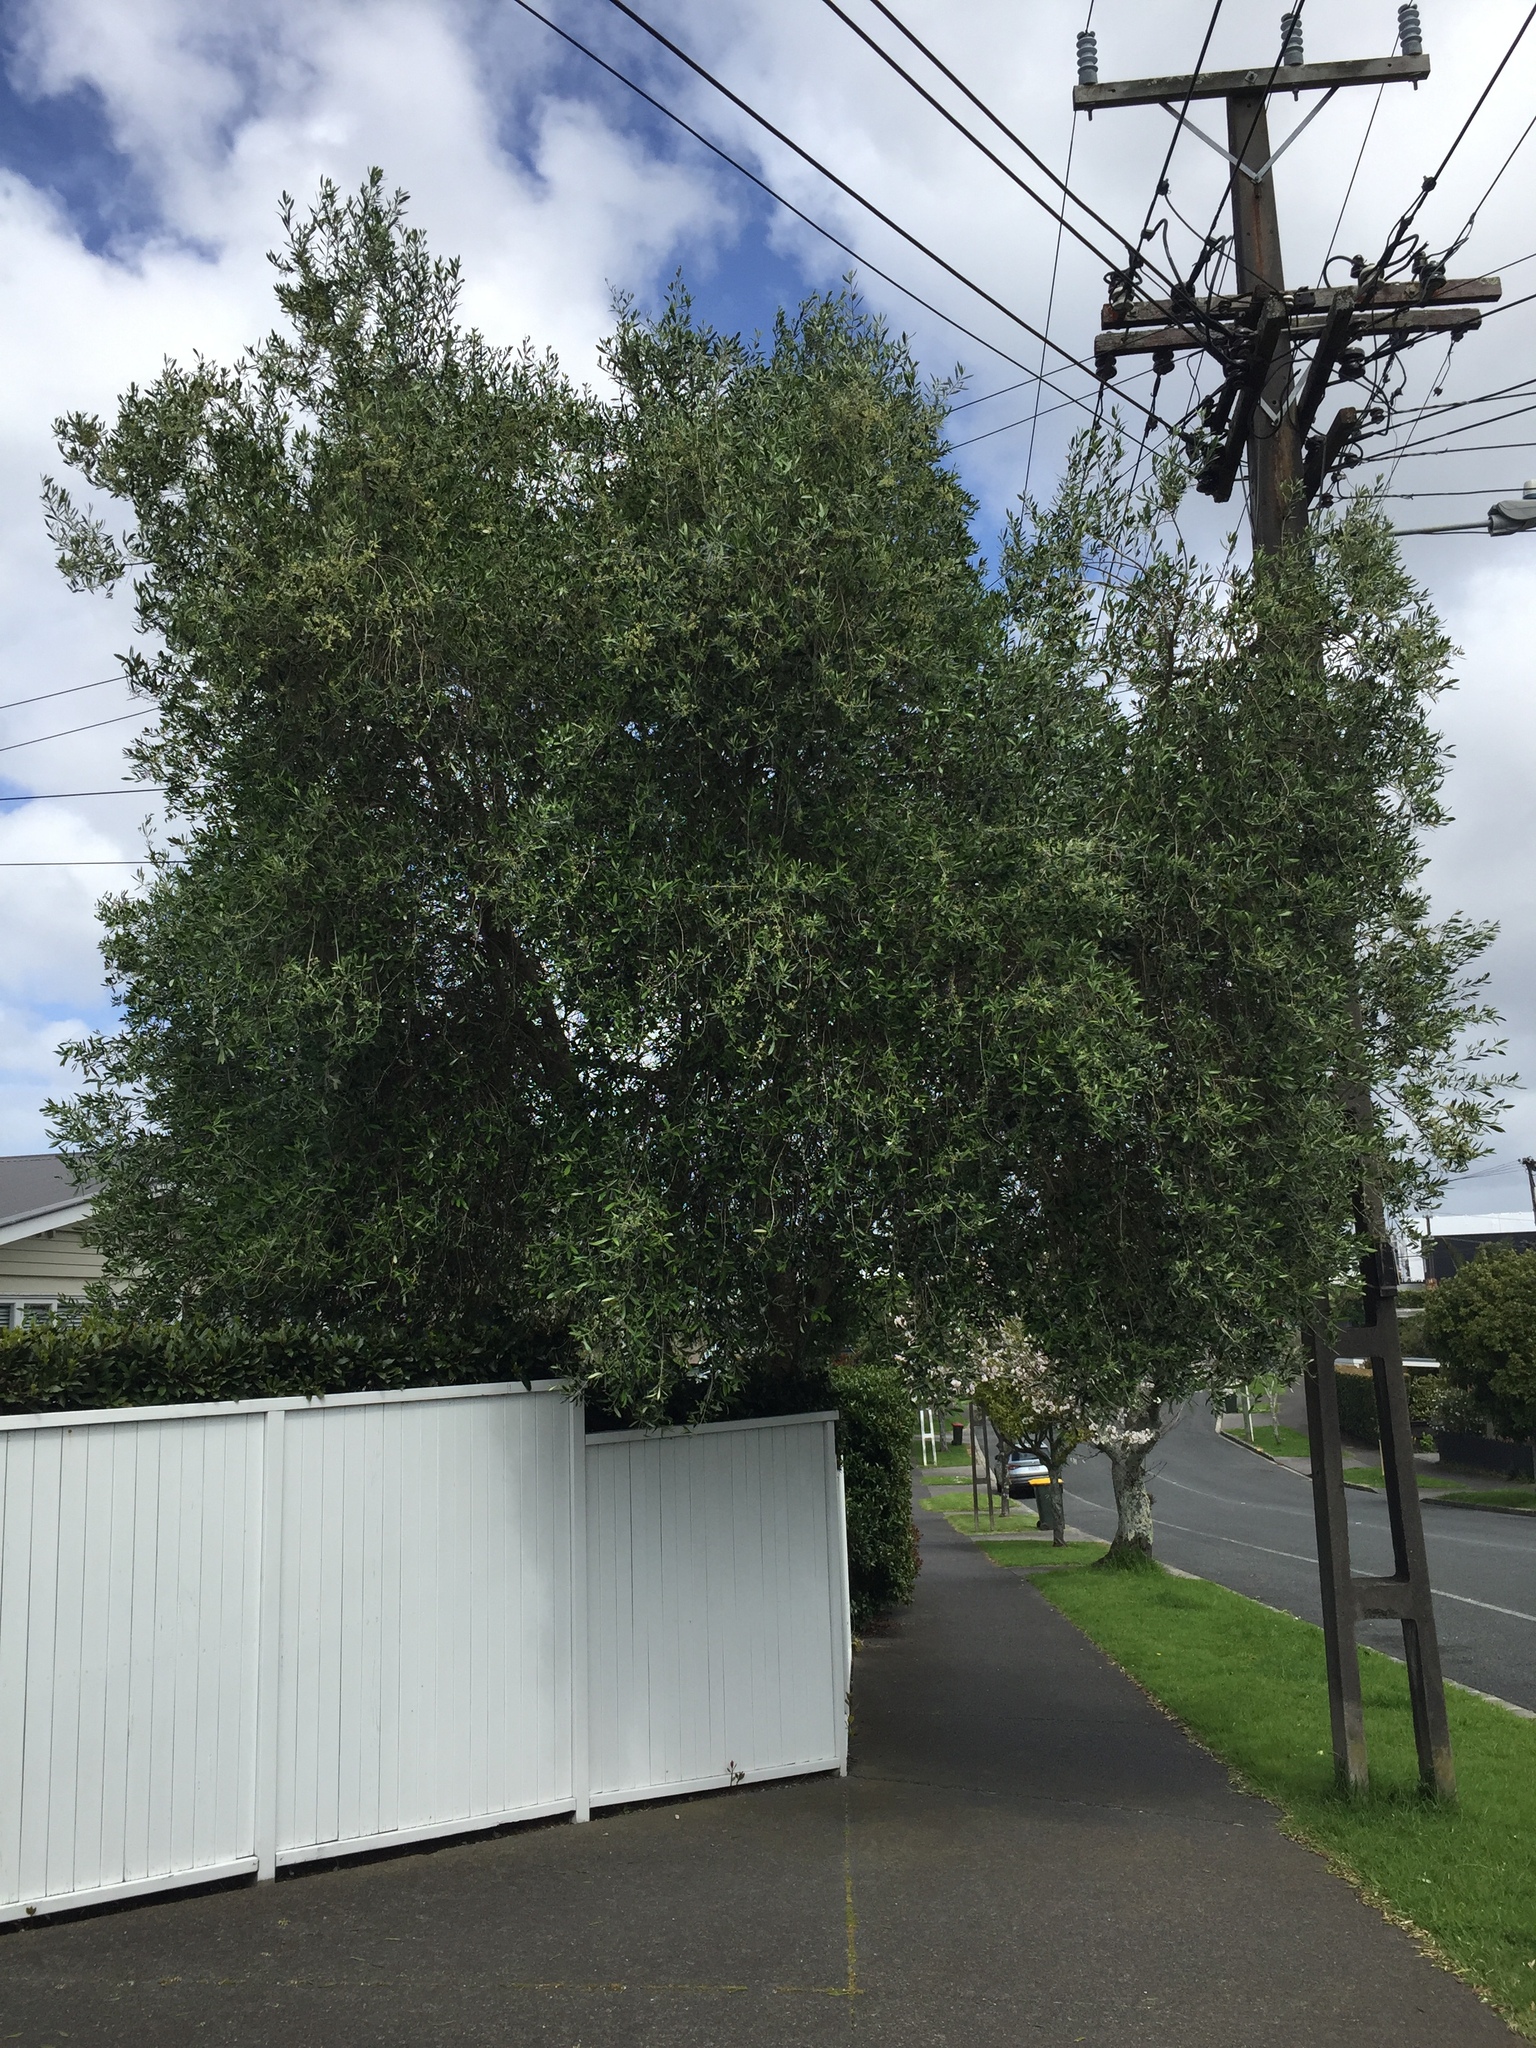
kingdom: Fungi
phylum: Ascomycota
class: Dothideomycetes
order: Venturiales
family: Venturiaceae
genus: Venturia
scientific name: Venturia oleaginea
